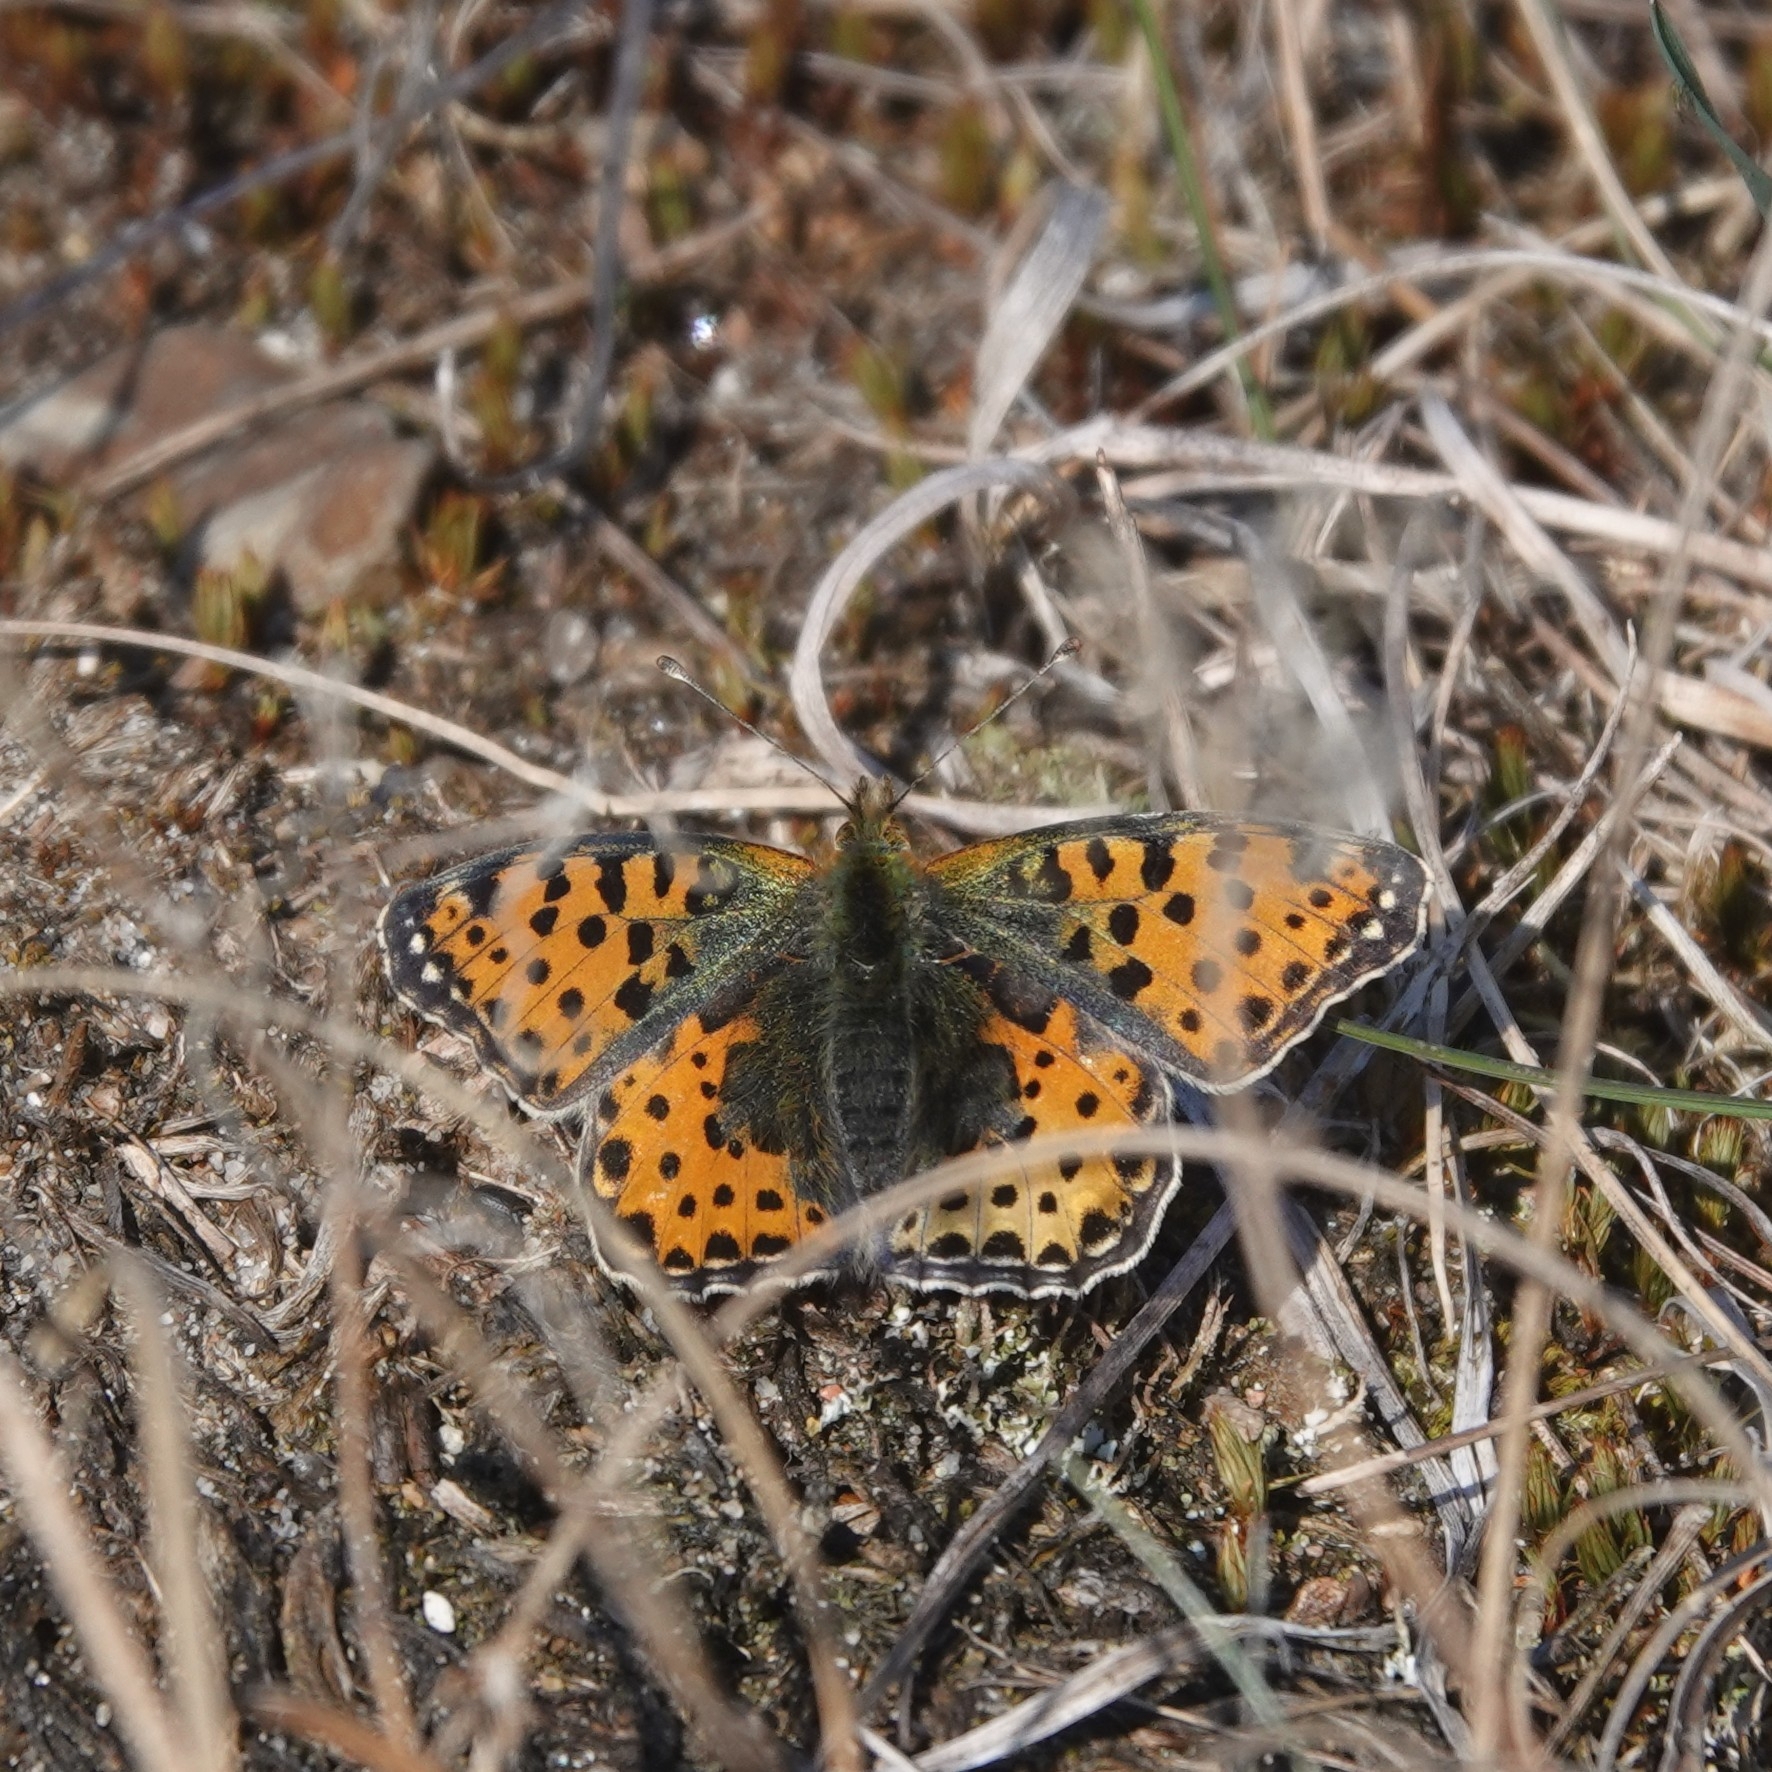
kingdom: Animalia
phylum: Arthropoda
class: Insecta
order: Lepidoptera
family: Nymphalidae
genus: Issoria
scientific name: Issoria lathonia
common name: Queen of spain fritillary
